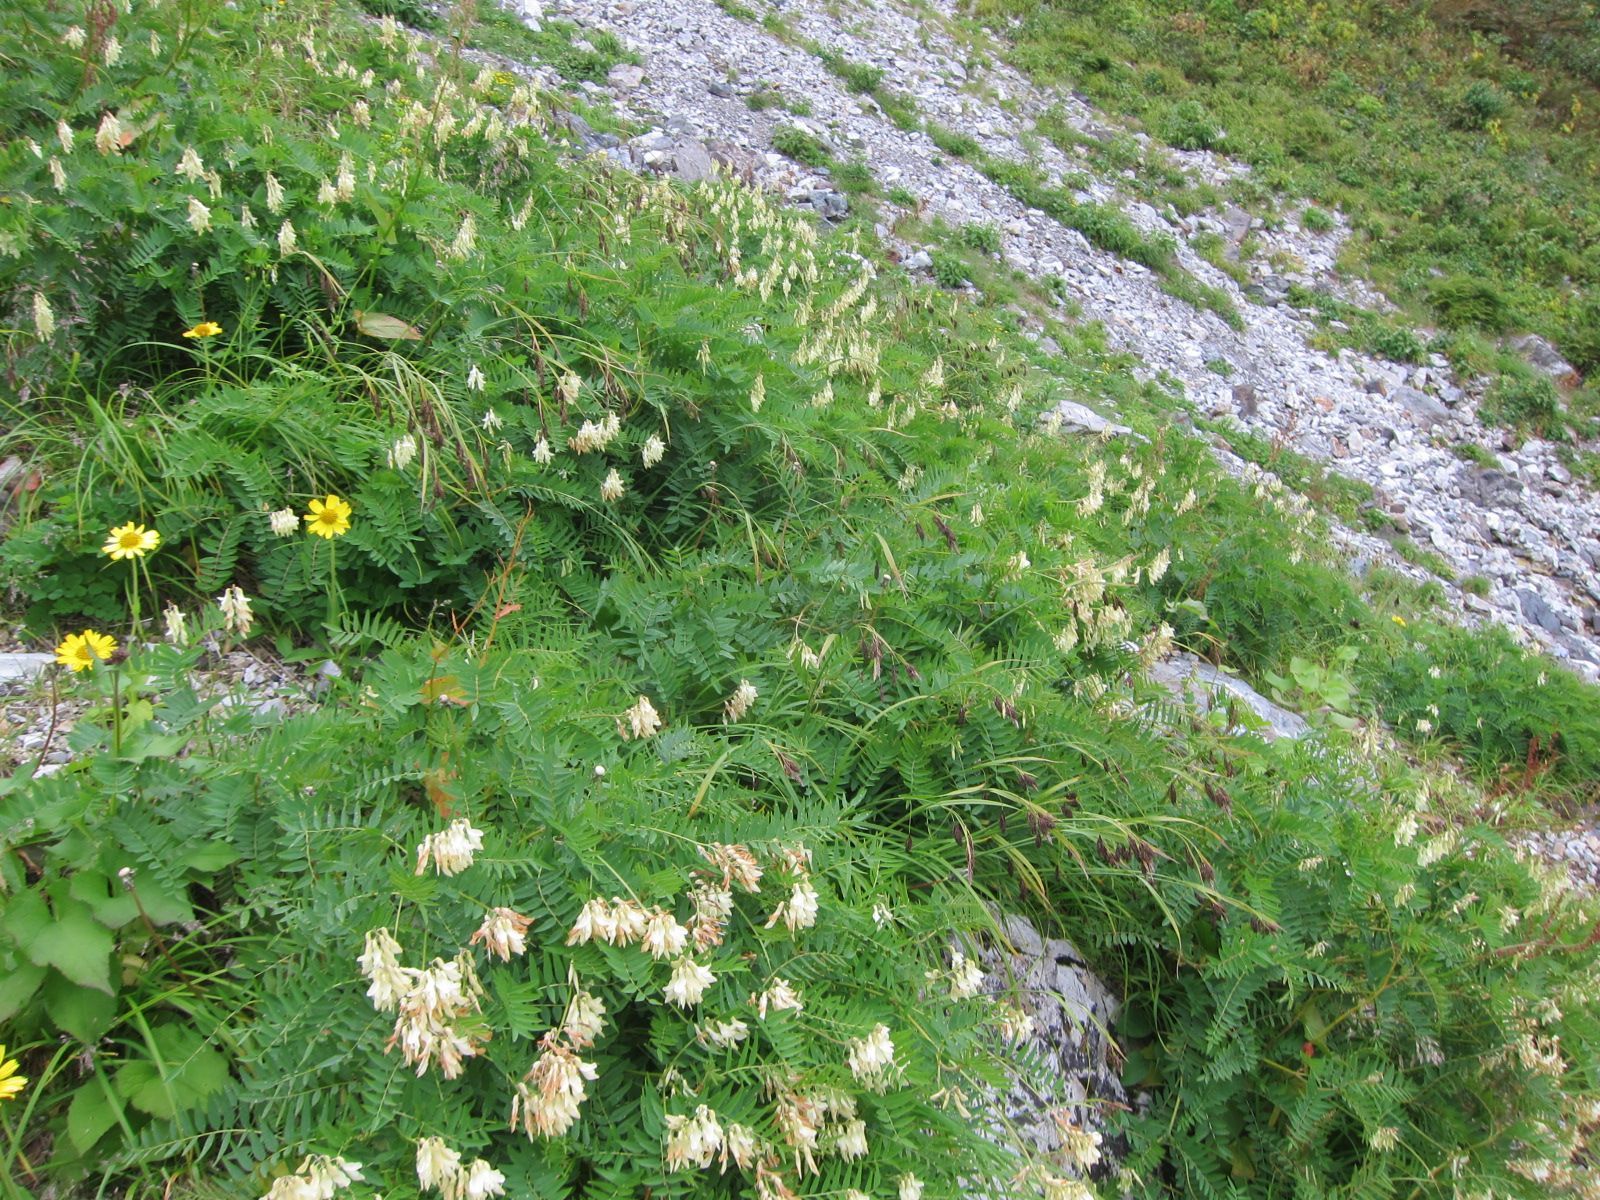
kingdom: Plantae
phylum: Tracheophyta
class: Magnoliopsida
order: Fabales
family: Fabaceae
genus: Hedysarum
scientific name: Hedysarum vicioides
